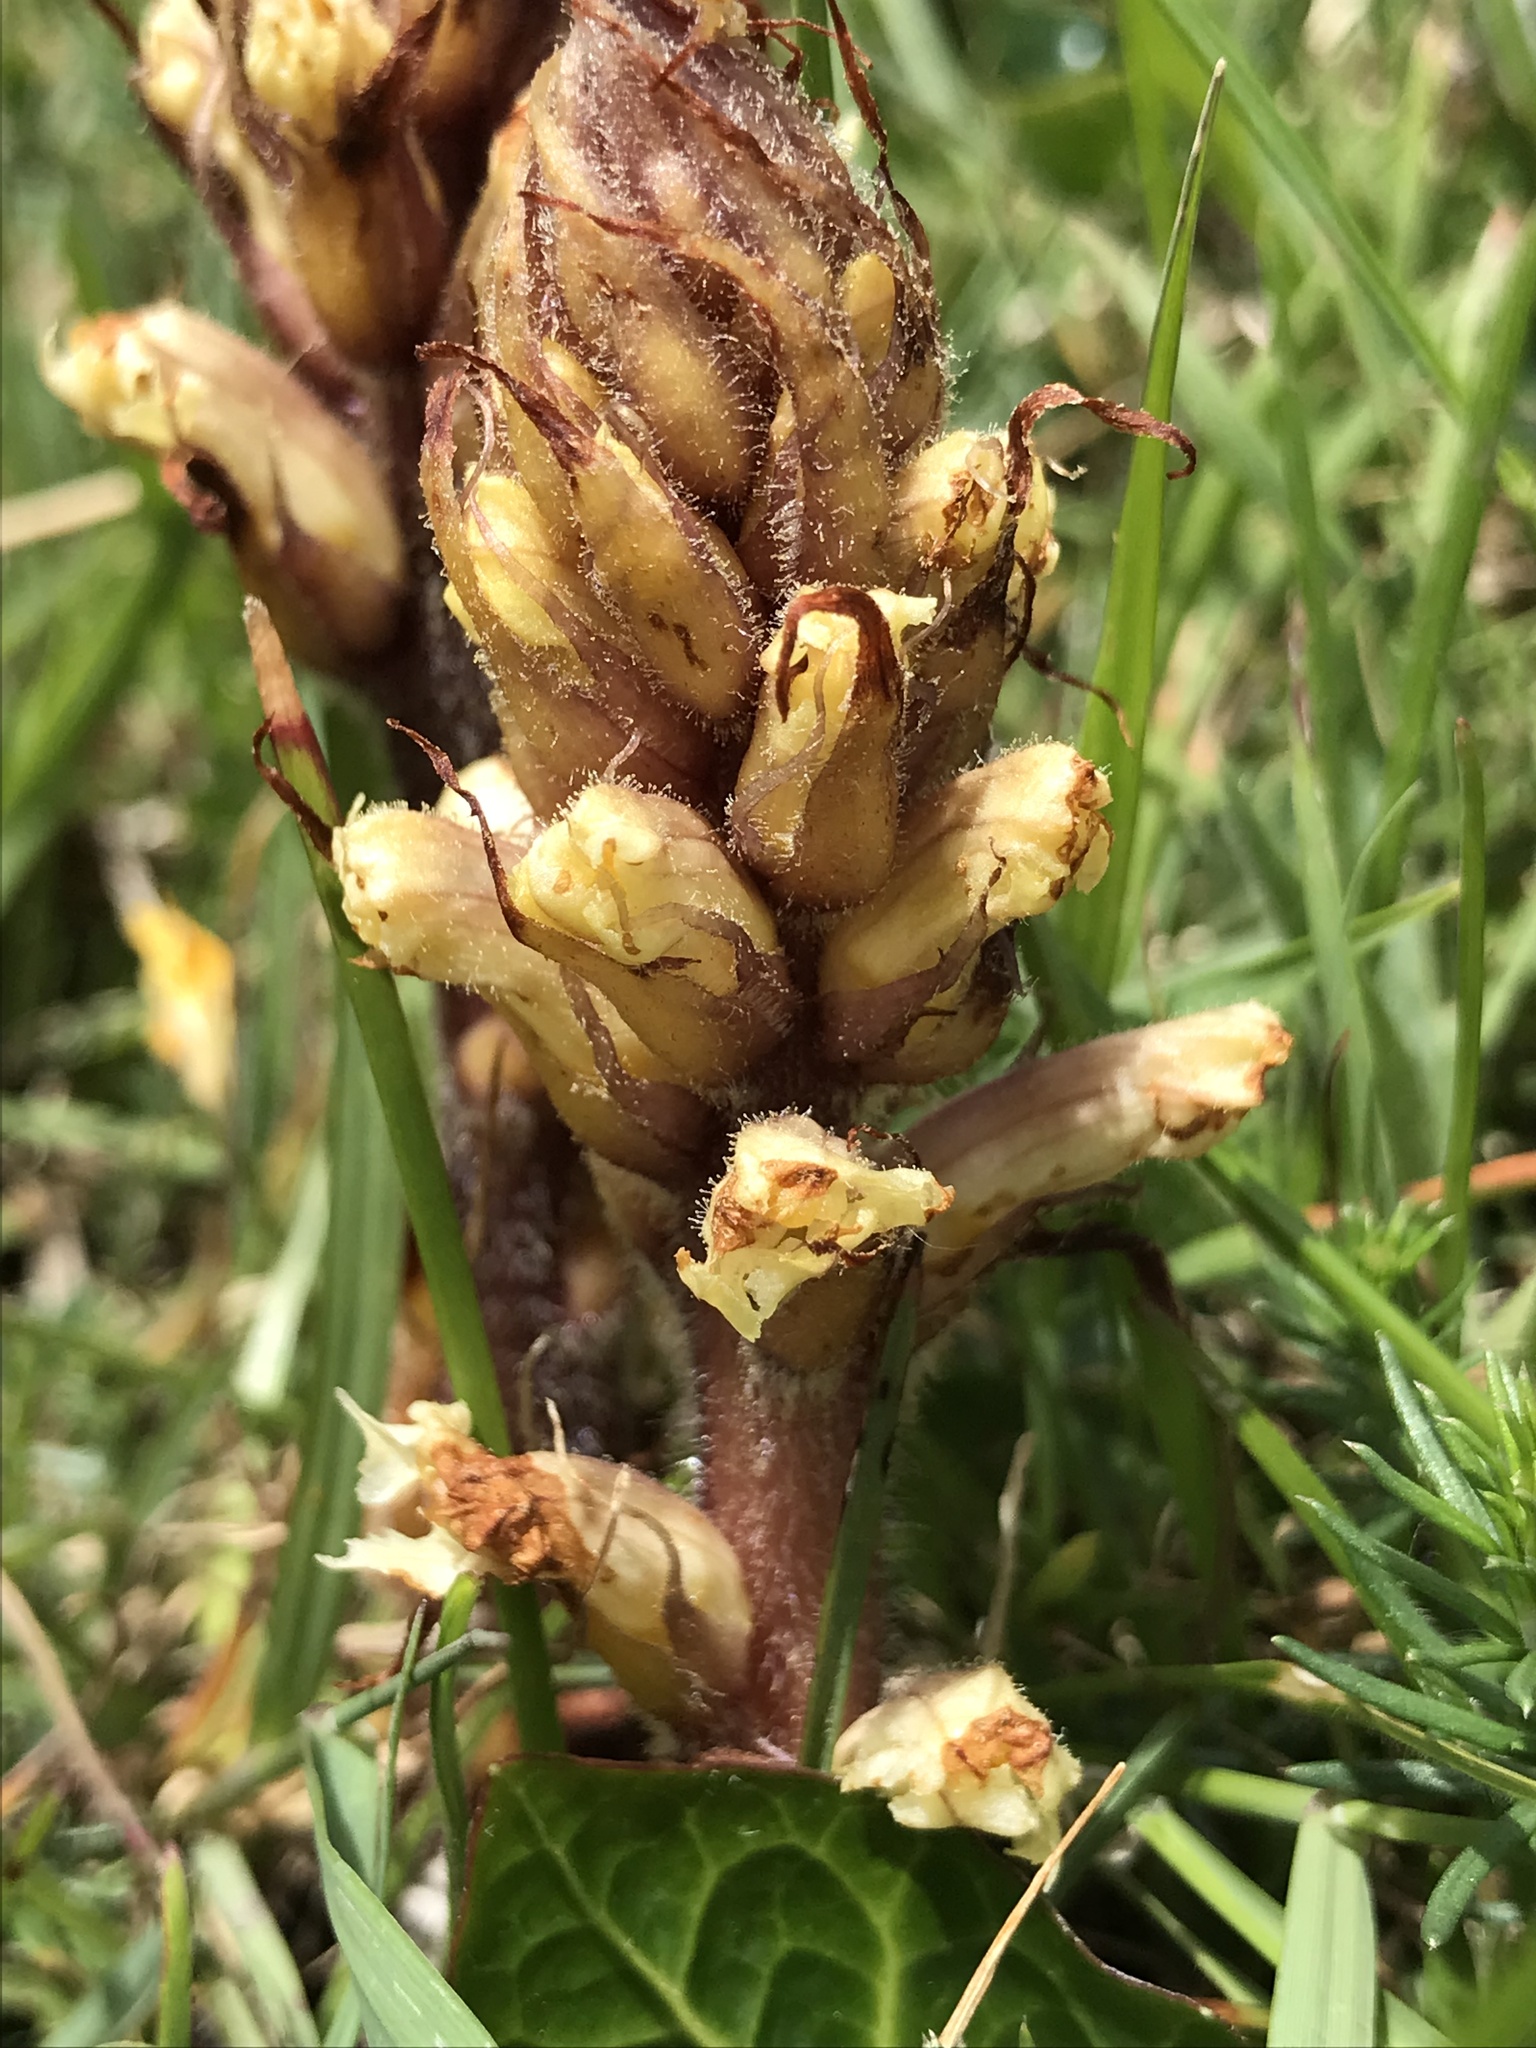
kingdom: Plantae
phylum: Tracheophyta
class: Magnoliopsida
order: Lamiales
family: Orobanchaceae
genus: Orobanche
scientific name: Orobanche hederae
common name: Ivy broomrape
